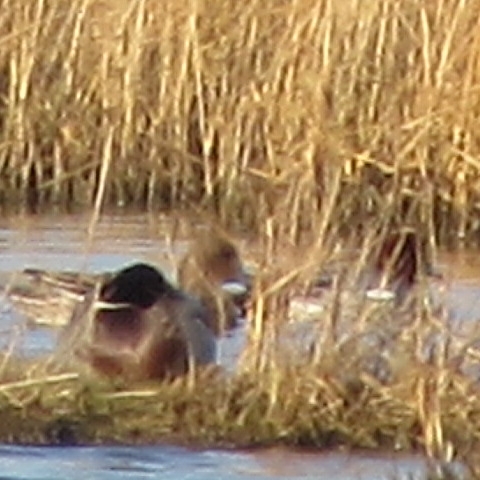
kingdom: Animalia
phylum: Chordata
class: Aves
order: Anseriformes
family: Anatidae
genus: Mareca
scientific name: Mareca penelope
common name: Eurasian wigeon
